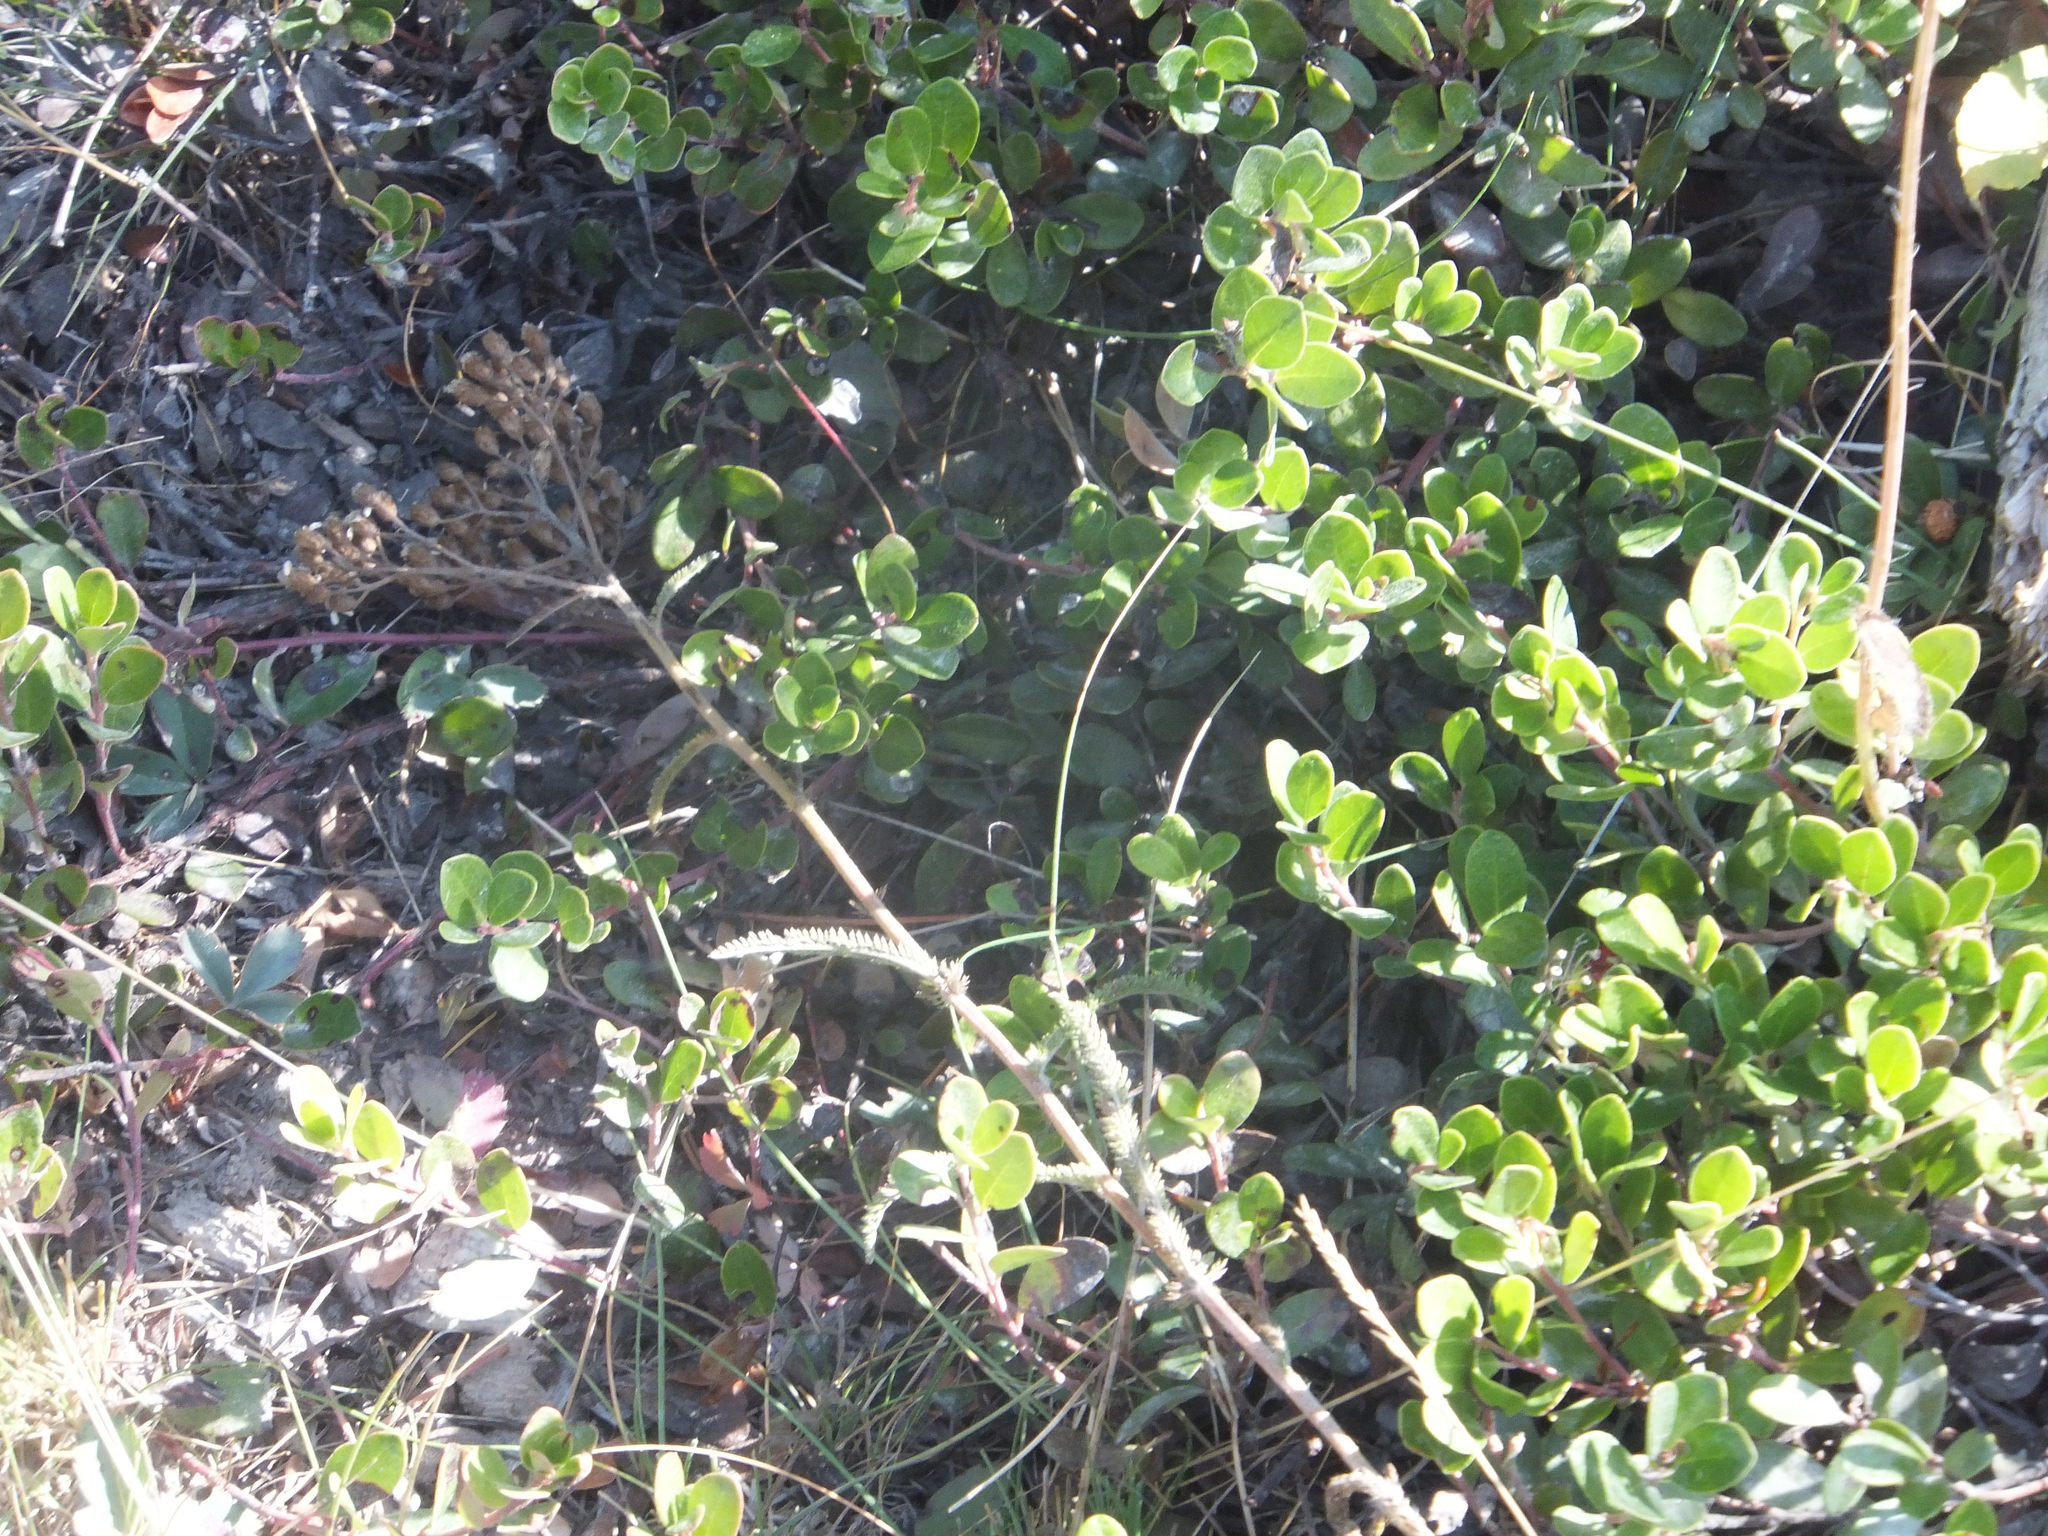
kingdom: Plantae
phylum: Tracheophyta
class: Magnoliopsida
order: Ericales
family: Ericaceae
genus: Arctostaphylos
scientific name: Arctostaphylos uva-ursi
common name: Bearberry
